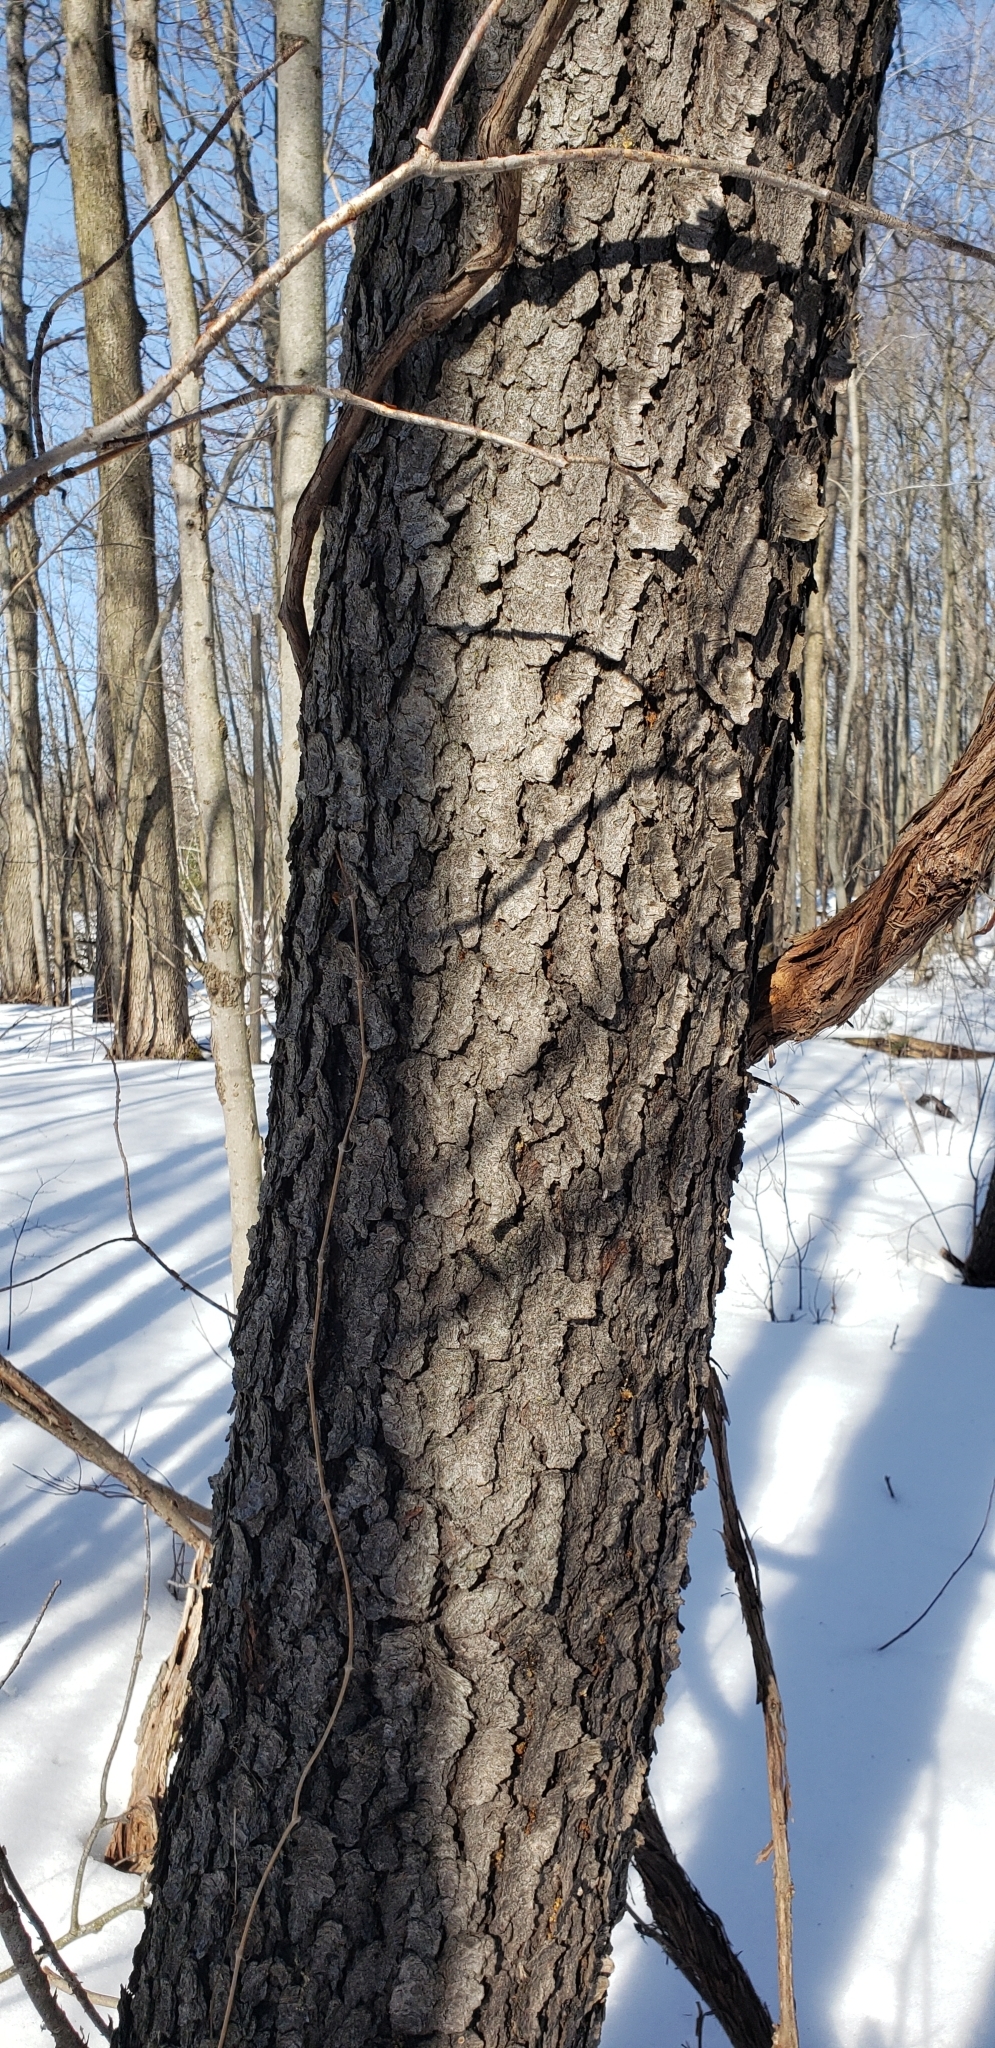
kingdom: Plantae
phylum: Tracheophyta
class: Magnoliopsida
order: Rosales
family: Rosaceae
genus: Prunus
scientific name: Prunus serotina
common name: Black cherry
